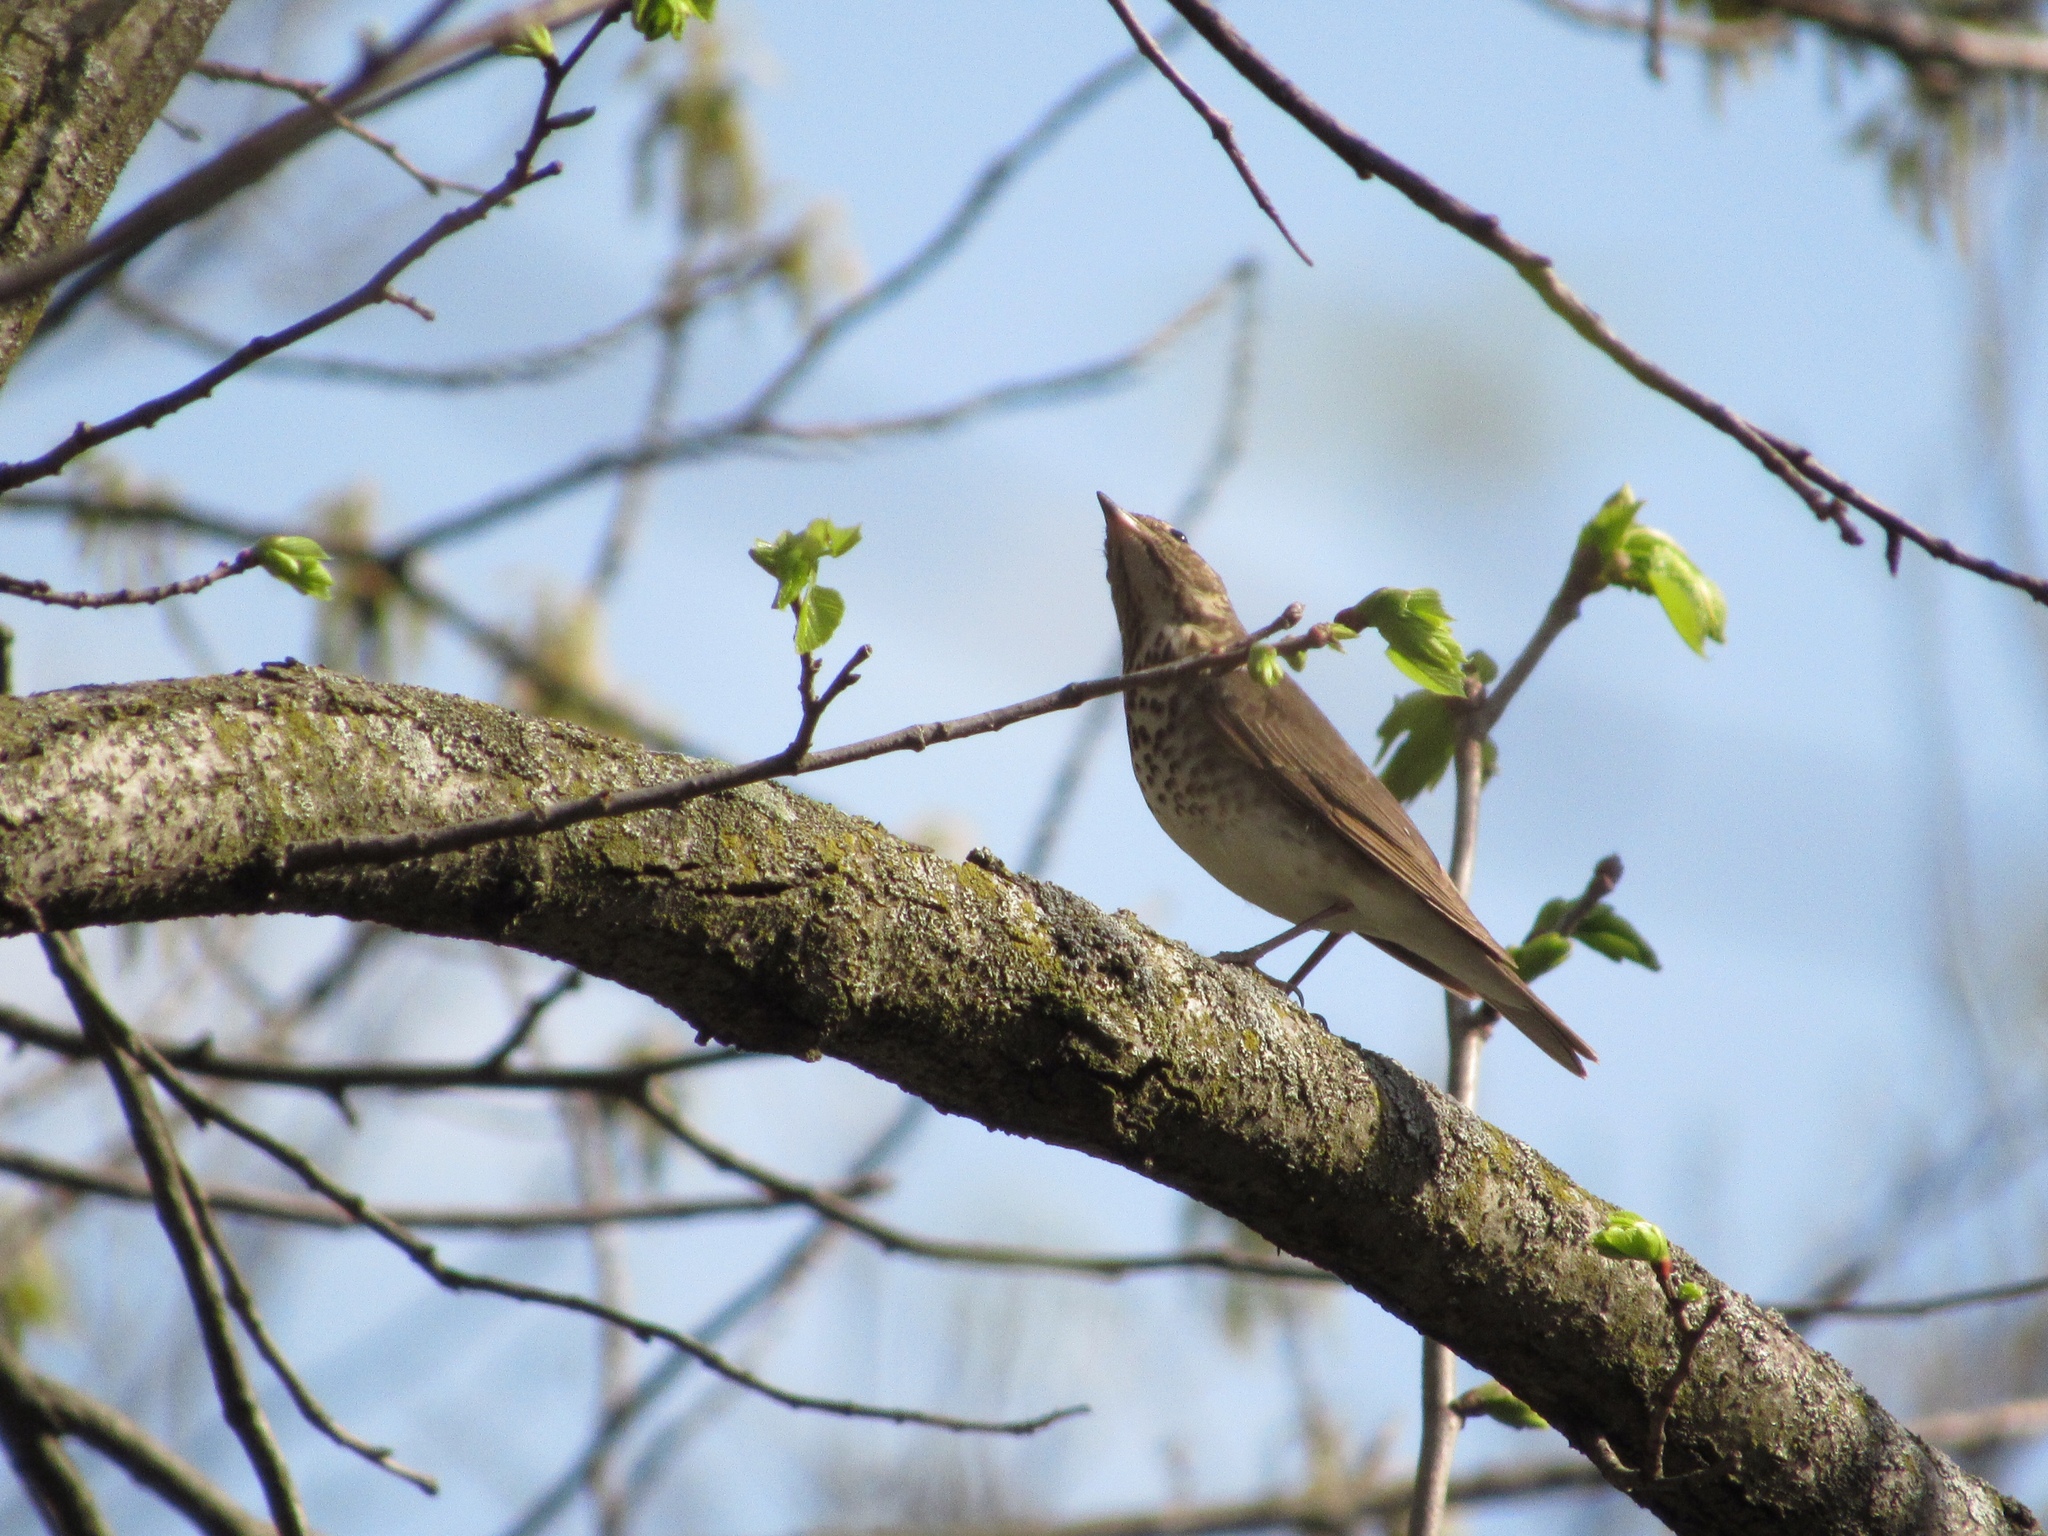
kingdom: Animalia
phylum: Chordata
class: Aves
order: Passeriformes
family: Turdidae
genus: Catharus
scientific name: Catharus ustulatus
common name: Swainson's thrush
